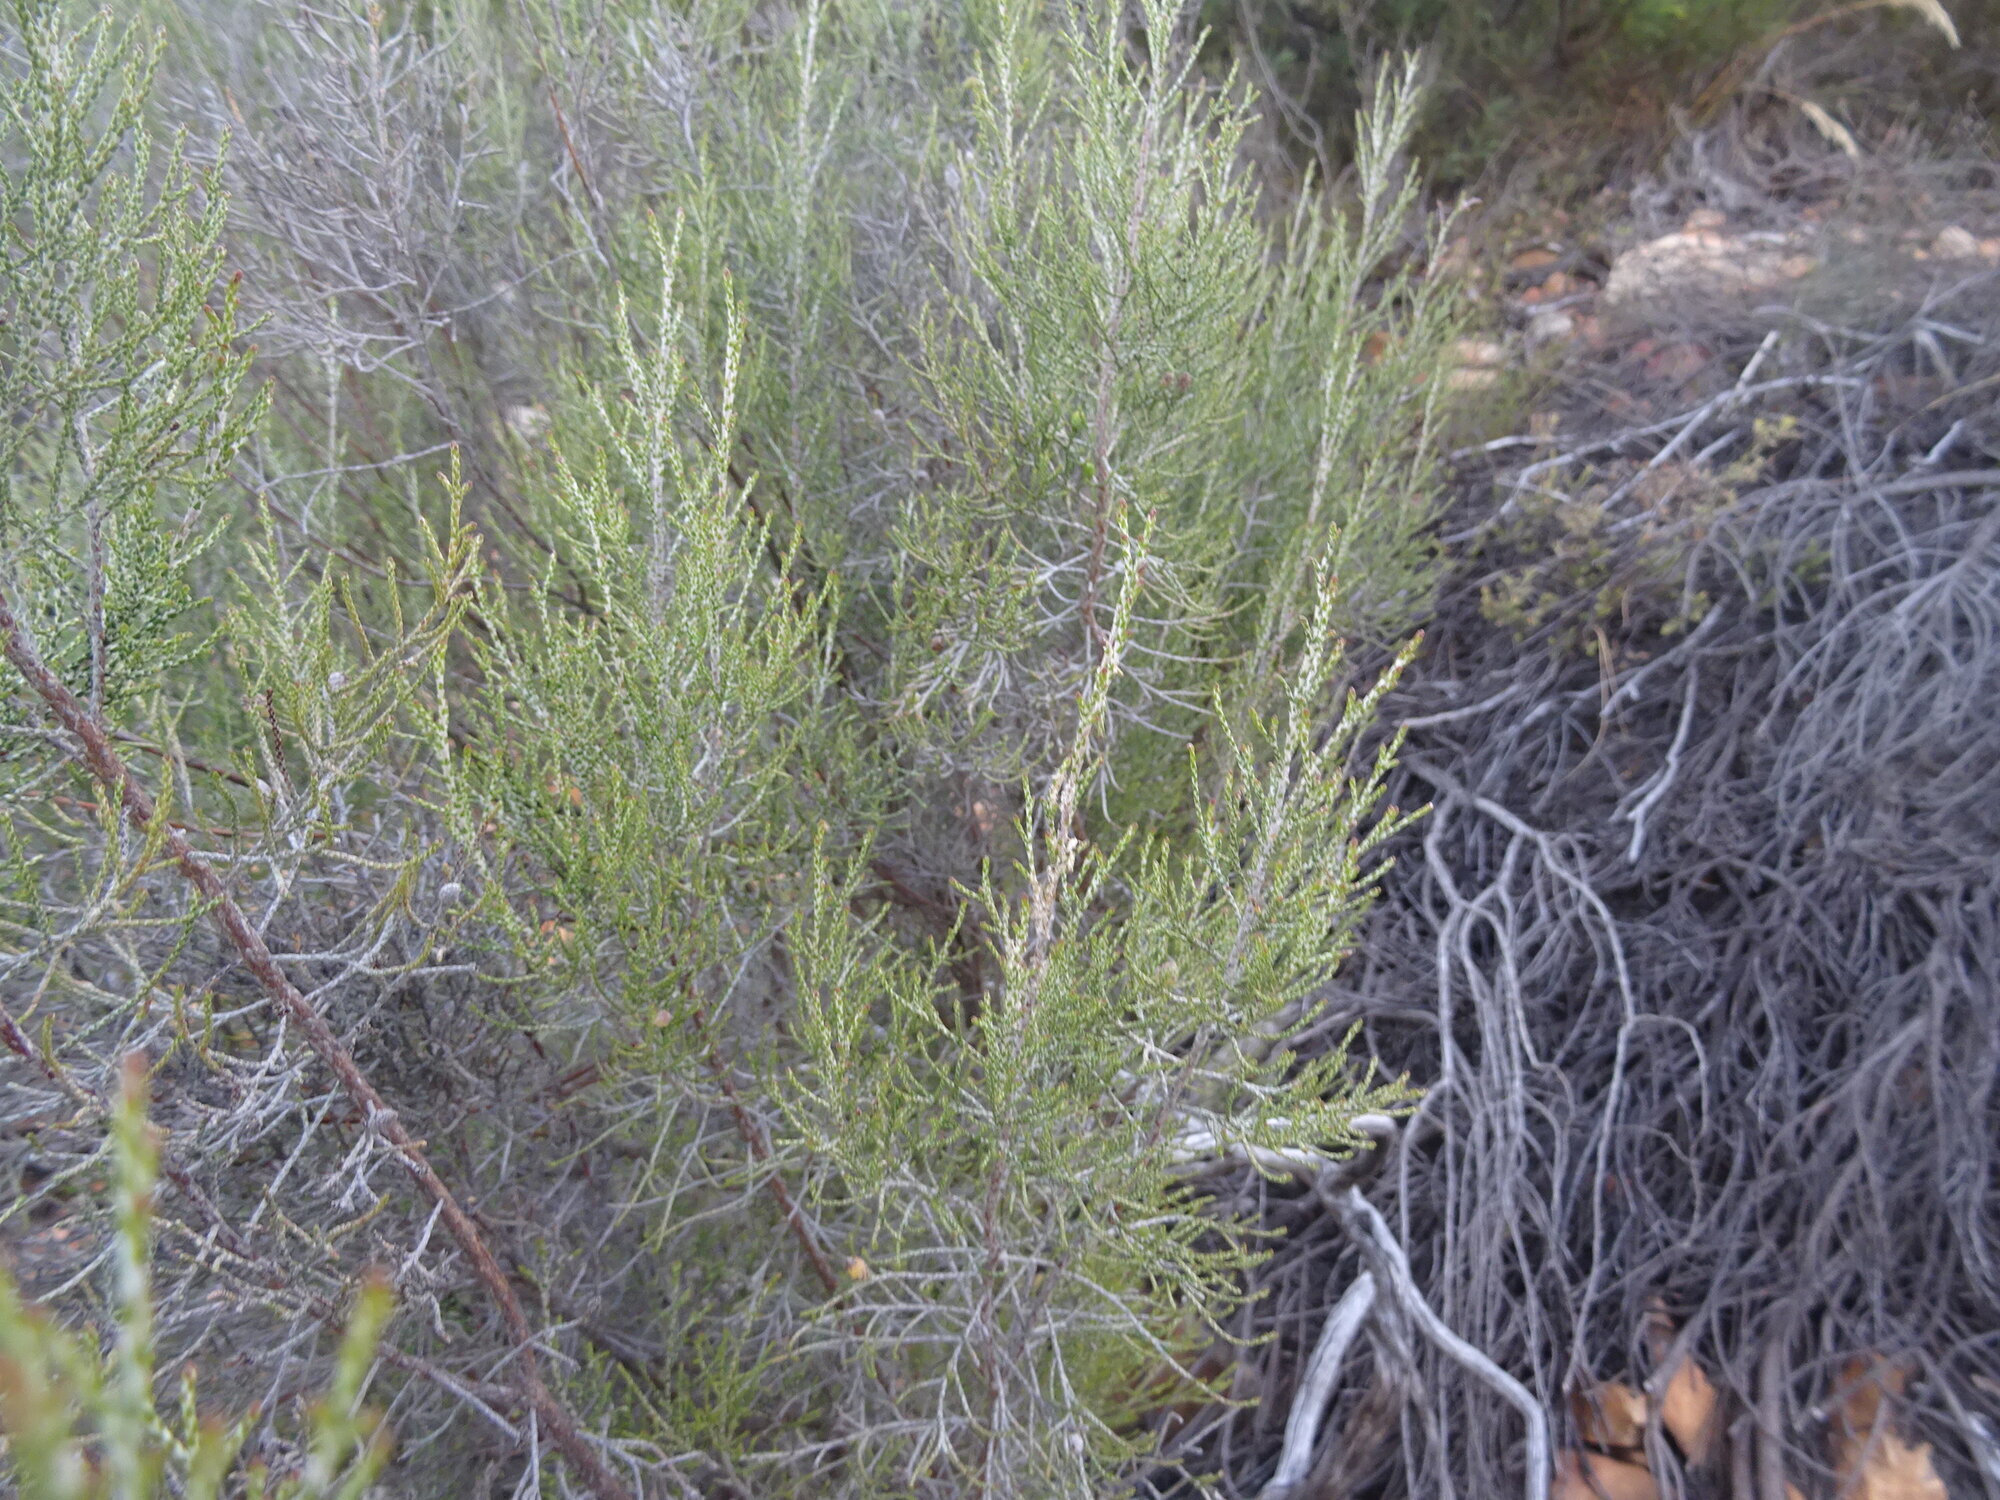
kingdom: Plantae
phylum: Tracheophyta
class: Magnoliopsida
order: Asterales
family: Asteraceae
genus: Dicerothamnus
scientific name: Dicerothamnus rhinocerotis
